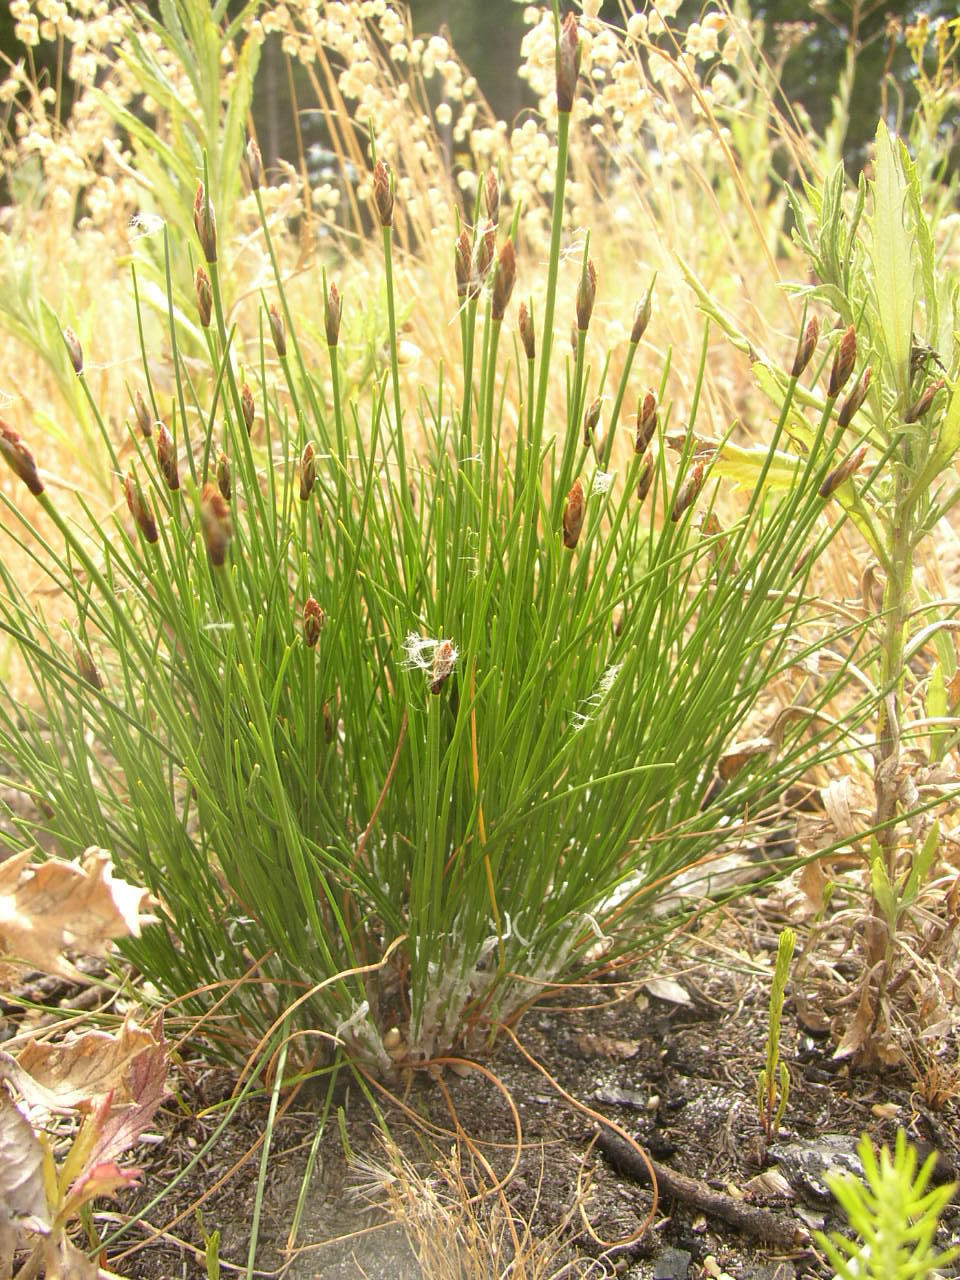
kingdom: Plantae
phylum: Tracheophyta
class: Liliopsida
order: Poales
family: Cyperaceae
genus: Ficinia
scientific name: Ficinia deusta
